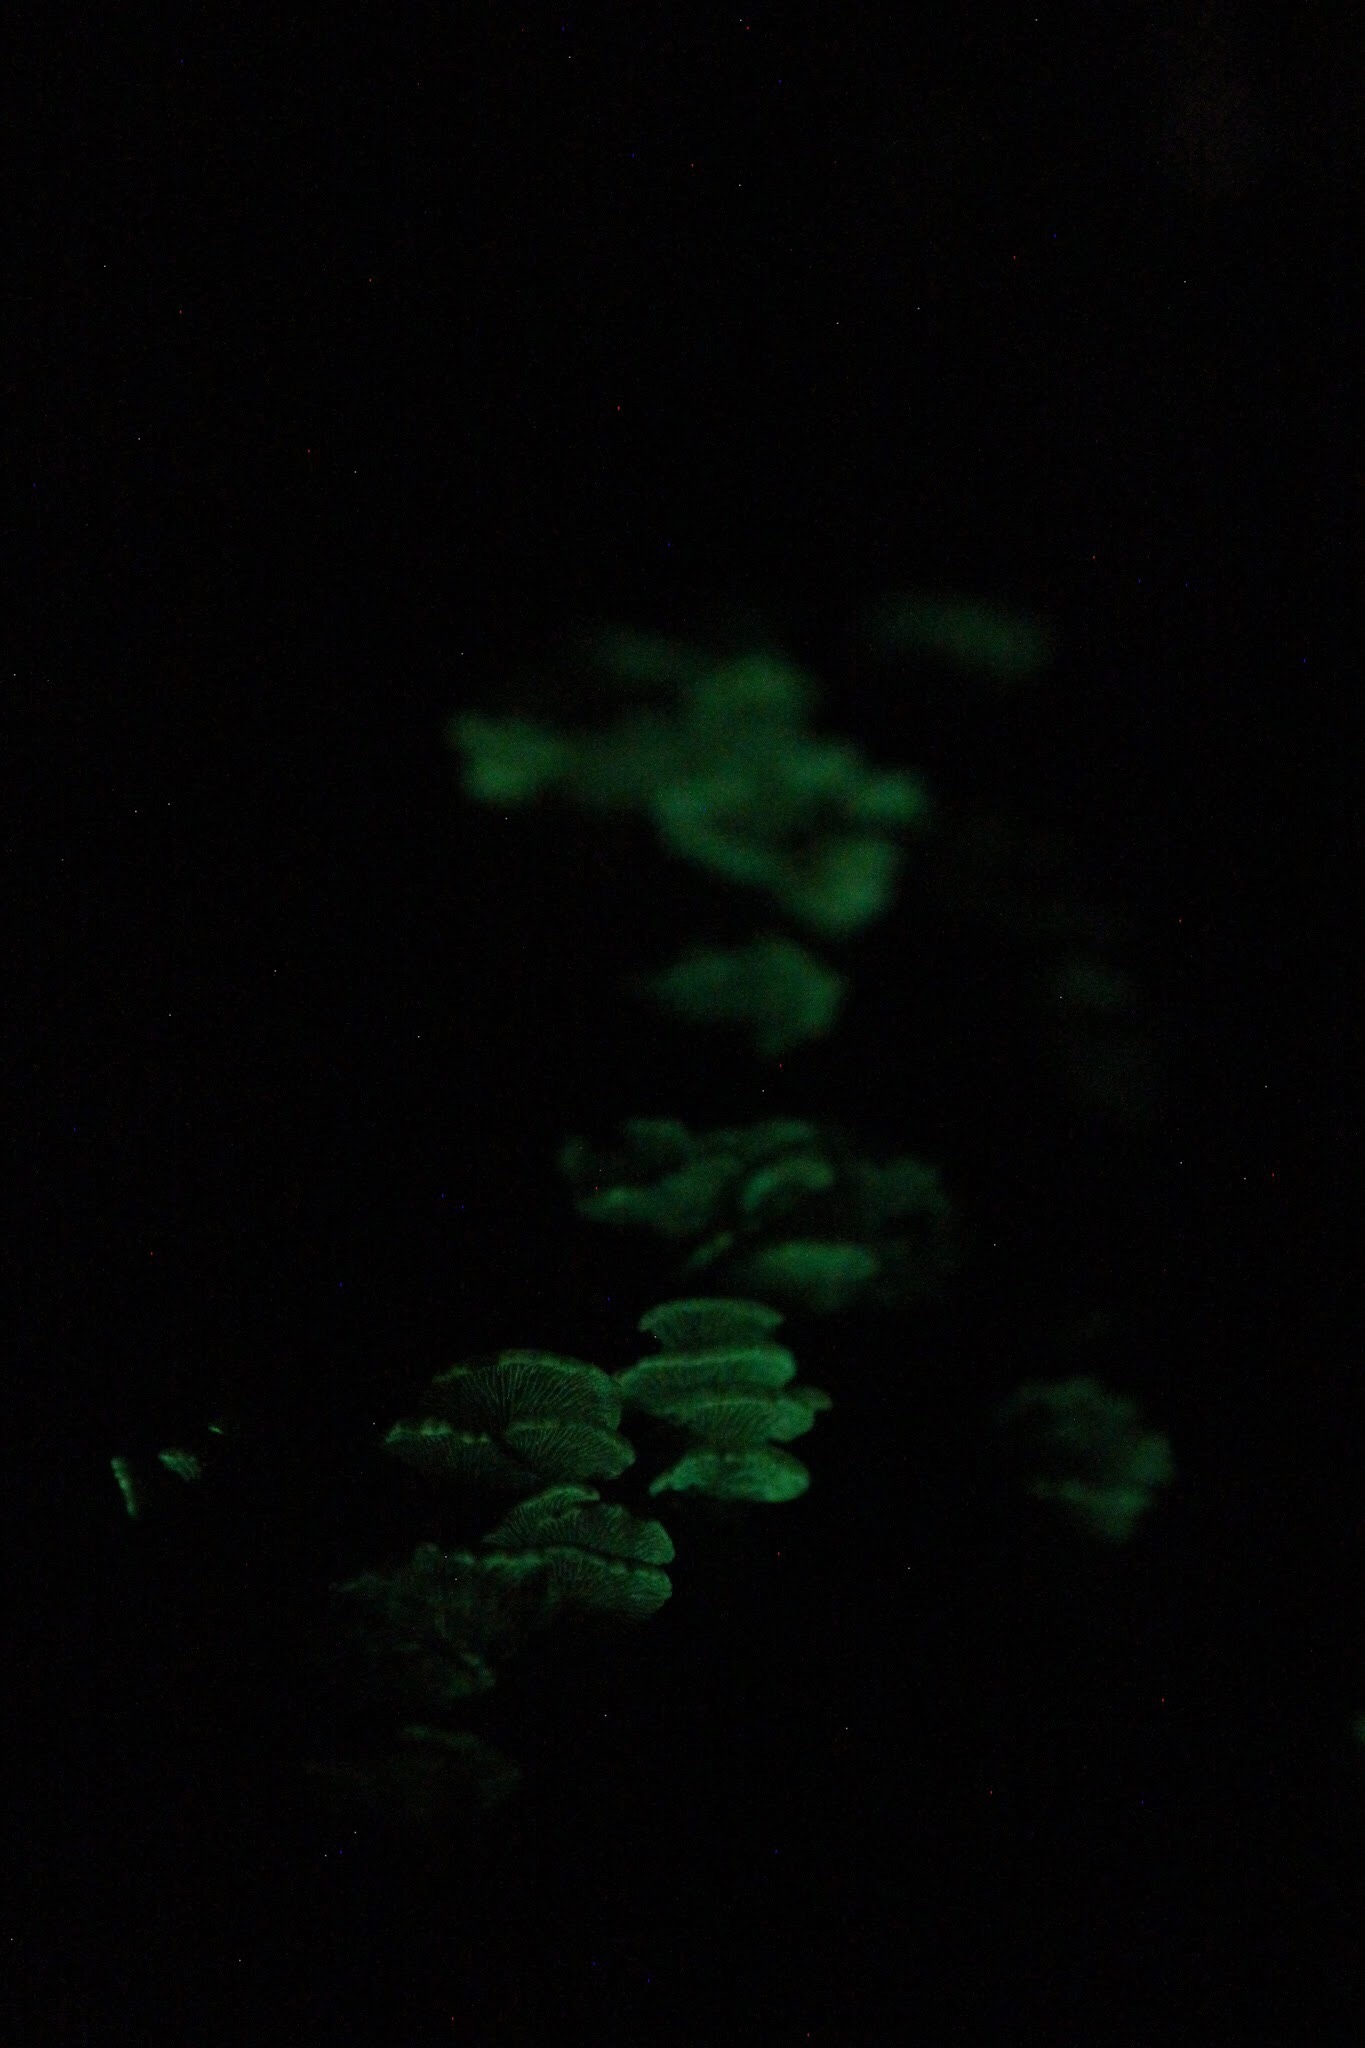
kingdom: Fungi
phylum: Basidiomycota
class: Agaricomycetes
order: Agaricales
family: Mycenaceae
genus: Panellus
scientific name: Panellus stipticus
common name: Bitter oysterling
